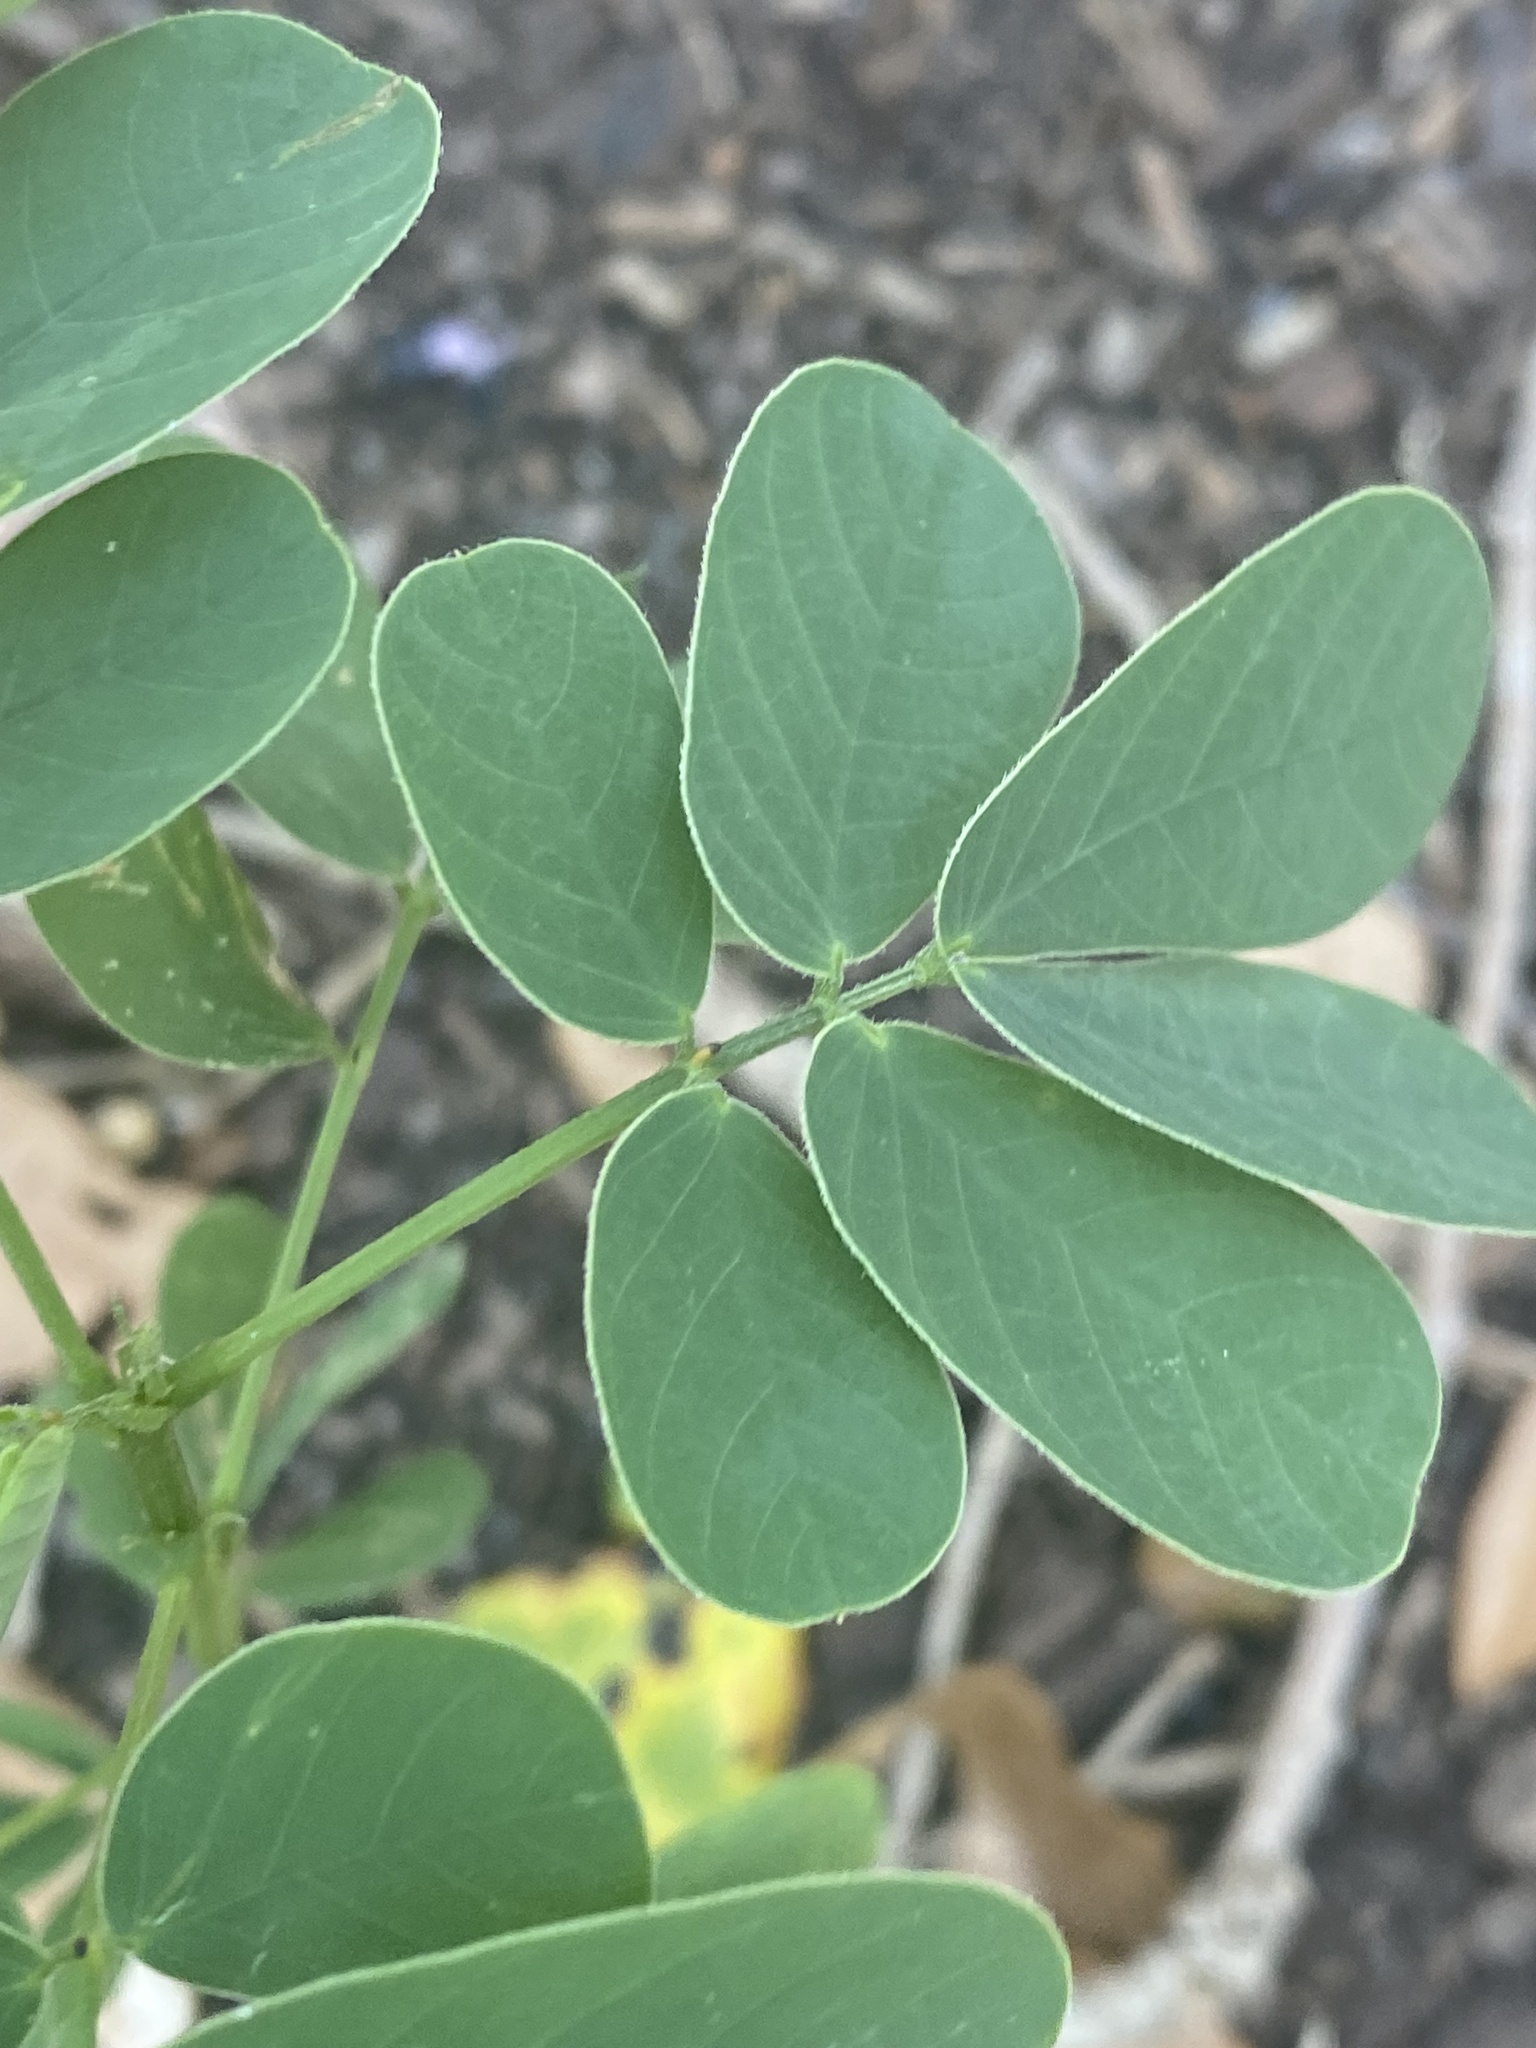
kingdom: Plantae
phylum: Tracheophyta
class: Magnoliopsida
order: Fabales
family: Fabaceae
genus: Senna
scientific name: Senna obtusifolia
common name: Java-bean
